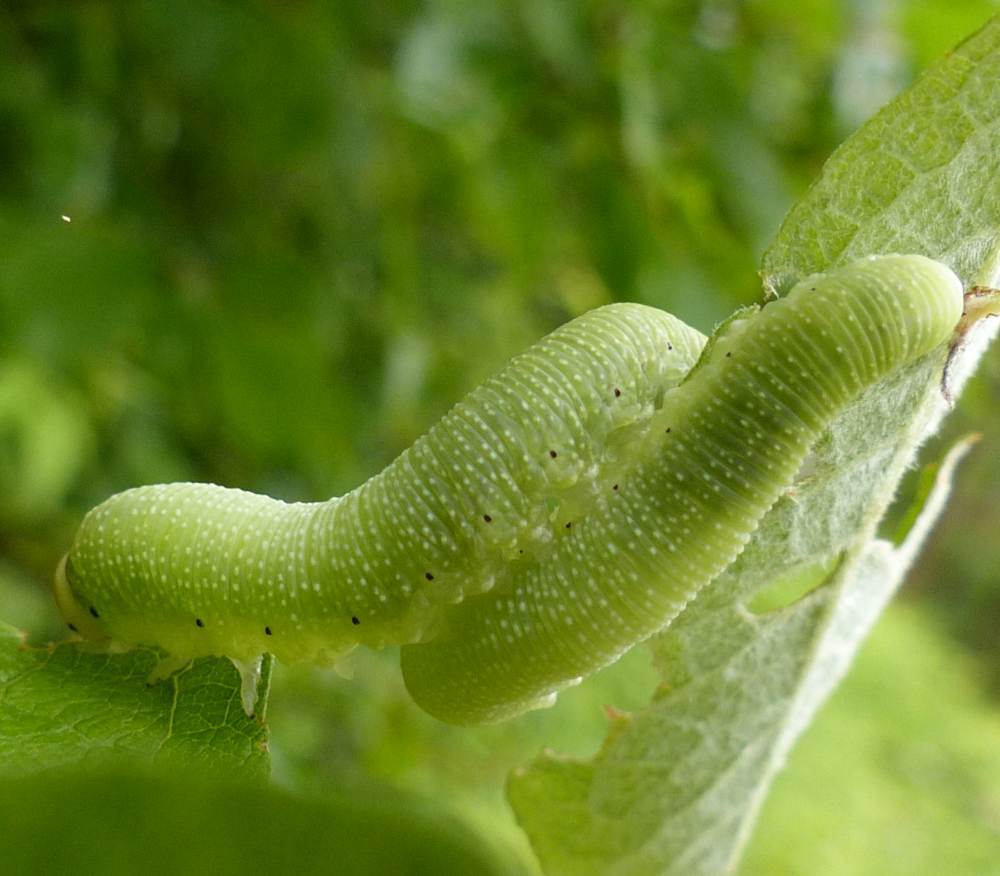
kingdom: Animalia
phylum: Arthropoda
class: Insecta
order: Hymenoptera
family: Cimbicidae
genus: Trichiosoma
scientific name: Trichiosoma triangulum
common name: Giant birch sawfly
